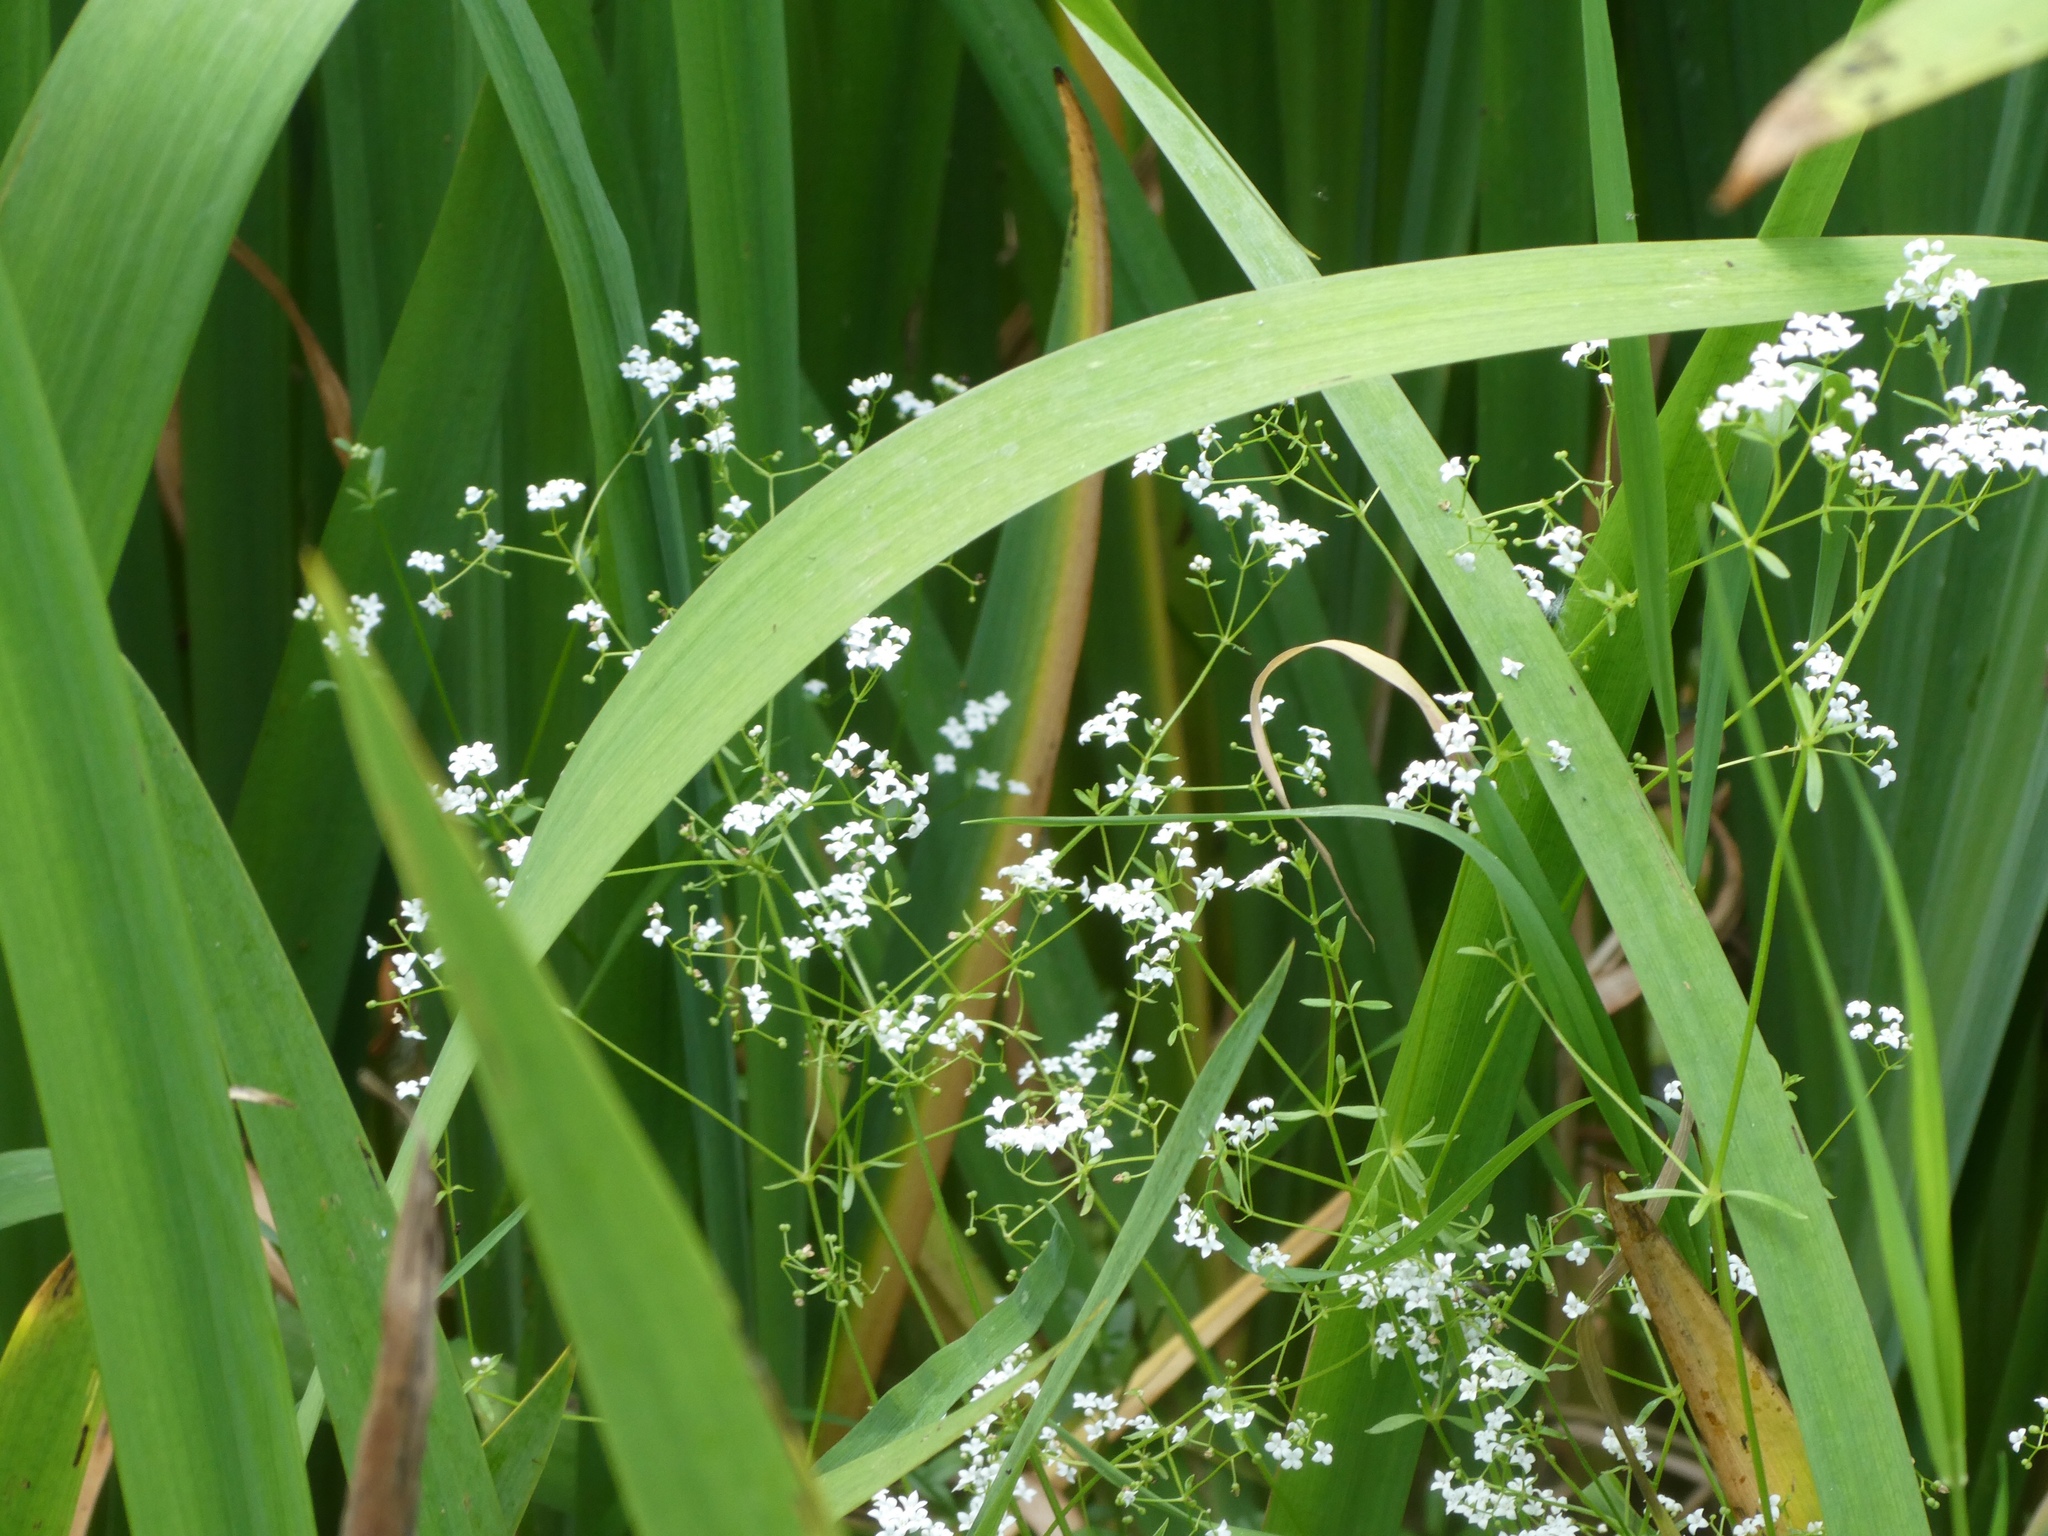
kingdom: Plantae
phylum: Tracheophyta
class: Magnoliopsida
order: Gentianales
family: Rubiaceae
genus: Galium
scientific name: Galium palustre
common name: Common marsh-bedstraw
